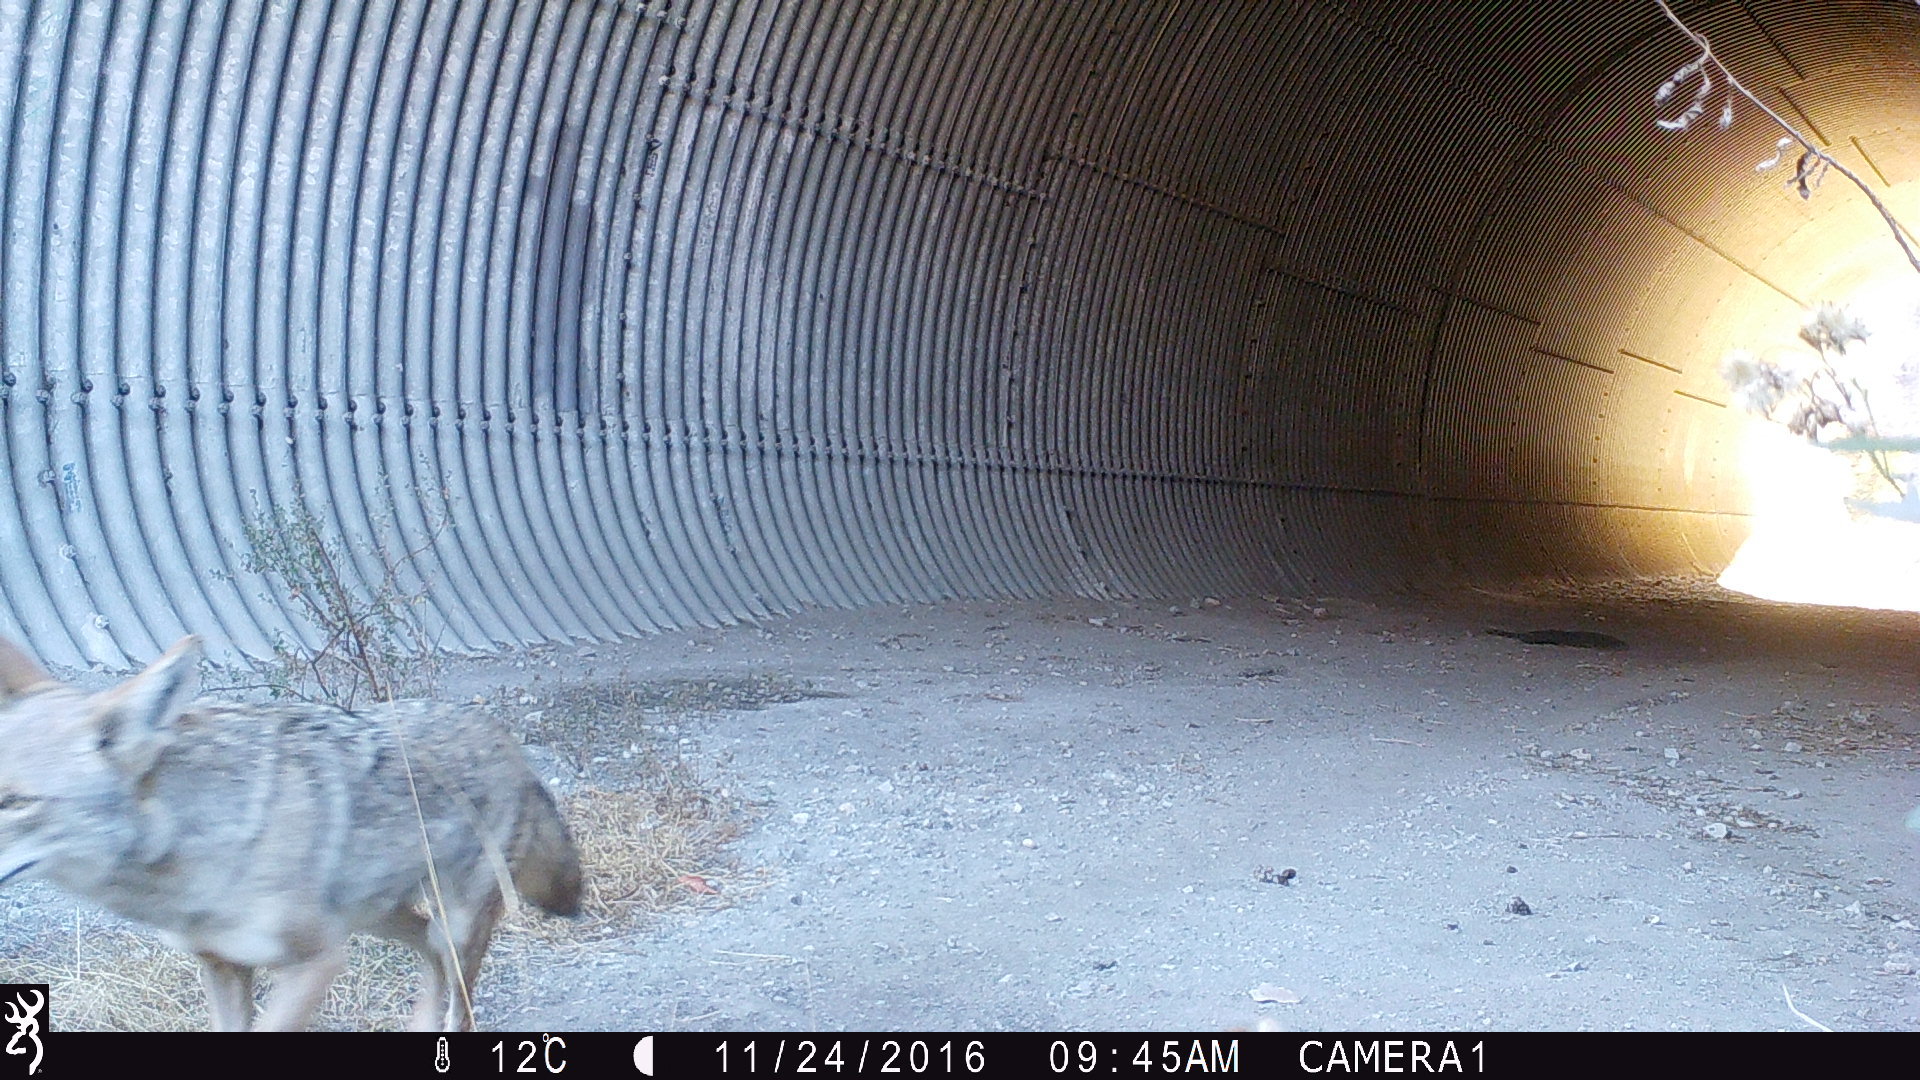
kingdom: Animalia
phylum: Chordata
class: Mammalia
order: Carnivora
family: Canidae
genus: Canis
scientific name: Canis latrans
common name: Coyote
